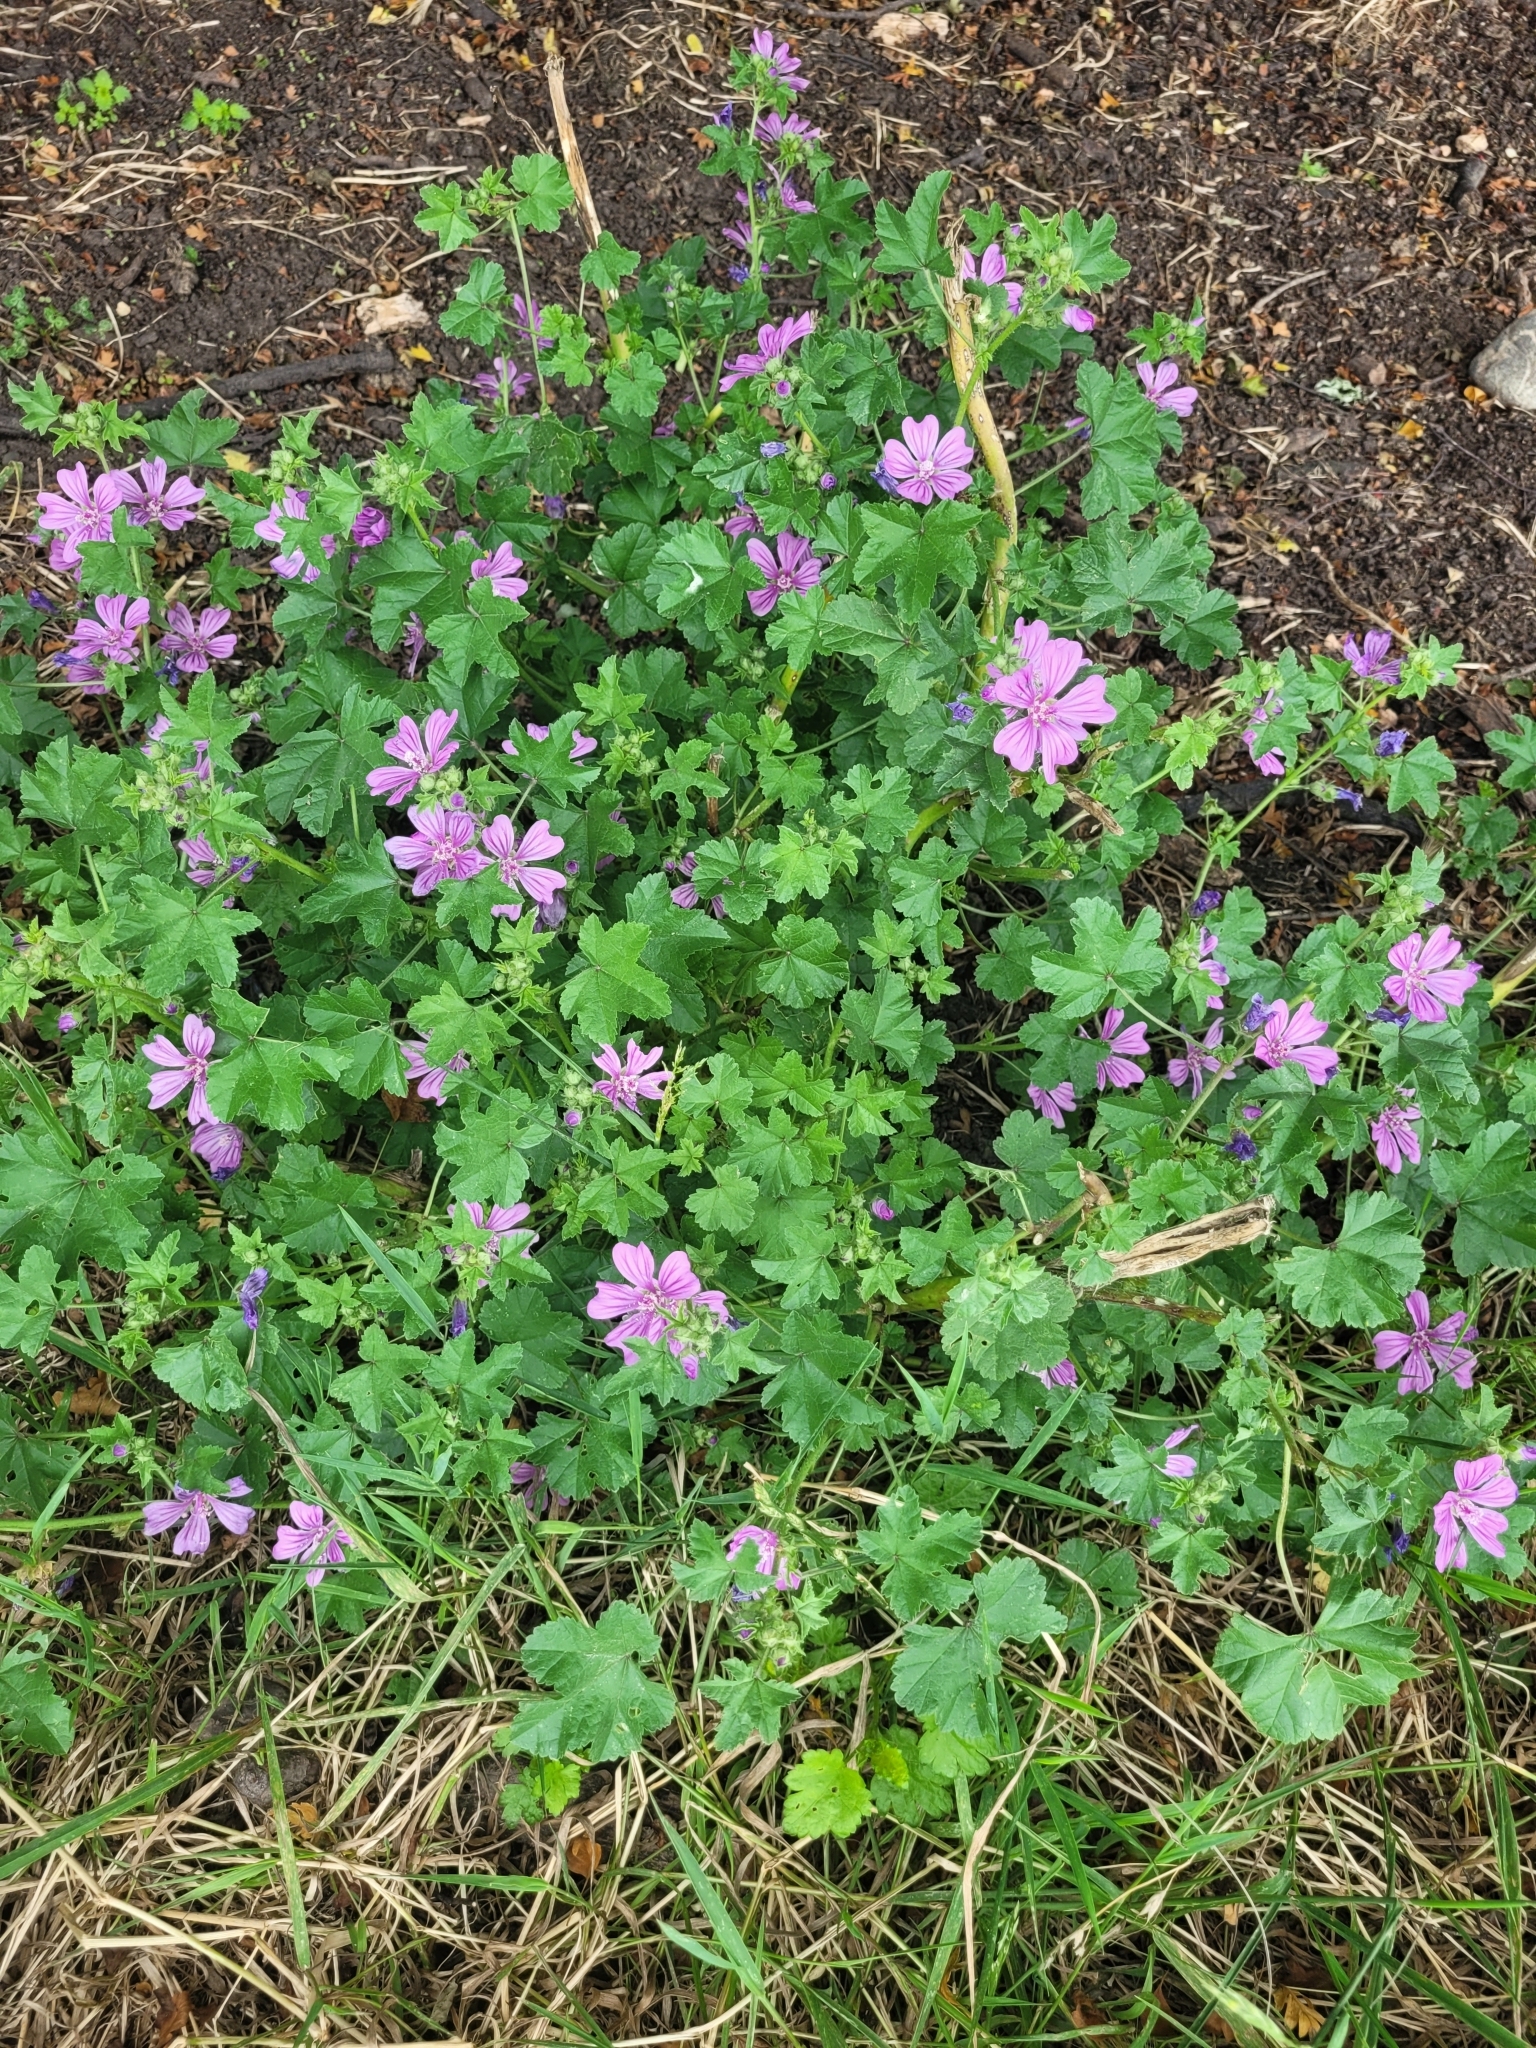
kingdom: Plantae
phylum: Tracheophyta
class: Magnoliopsida
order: Malvales
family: Malvaceae
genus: Malva
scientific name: Malva sylvestris
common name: Common mallow
